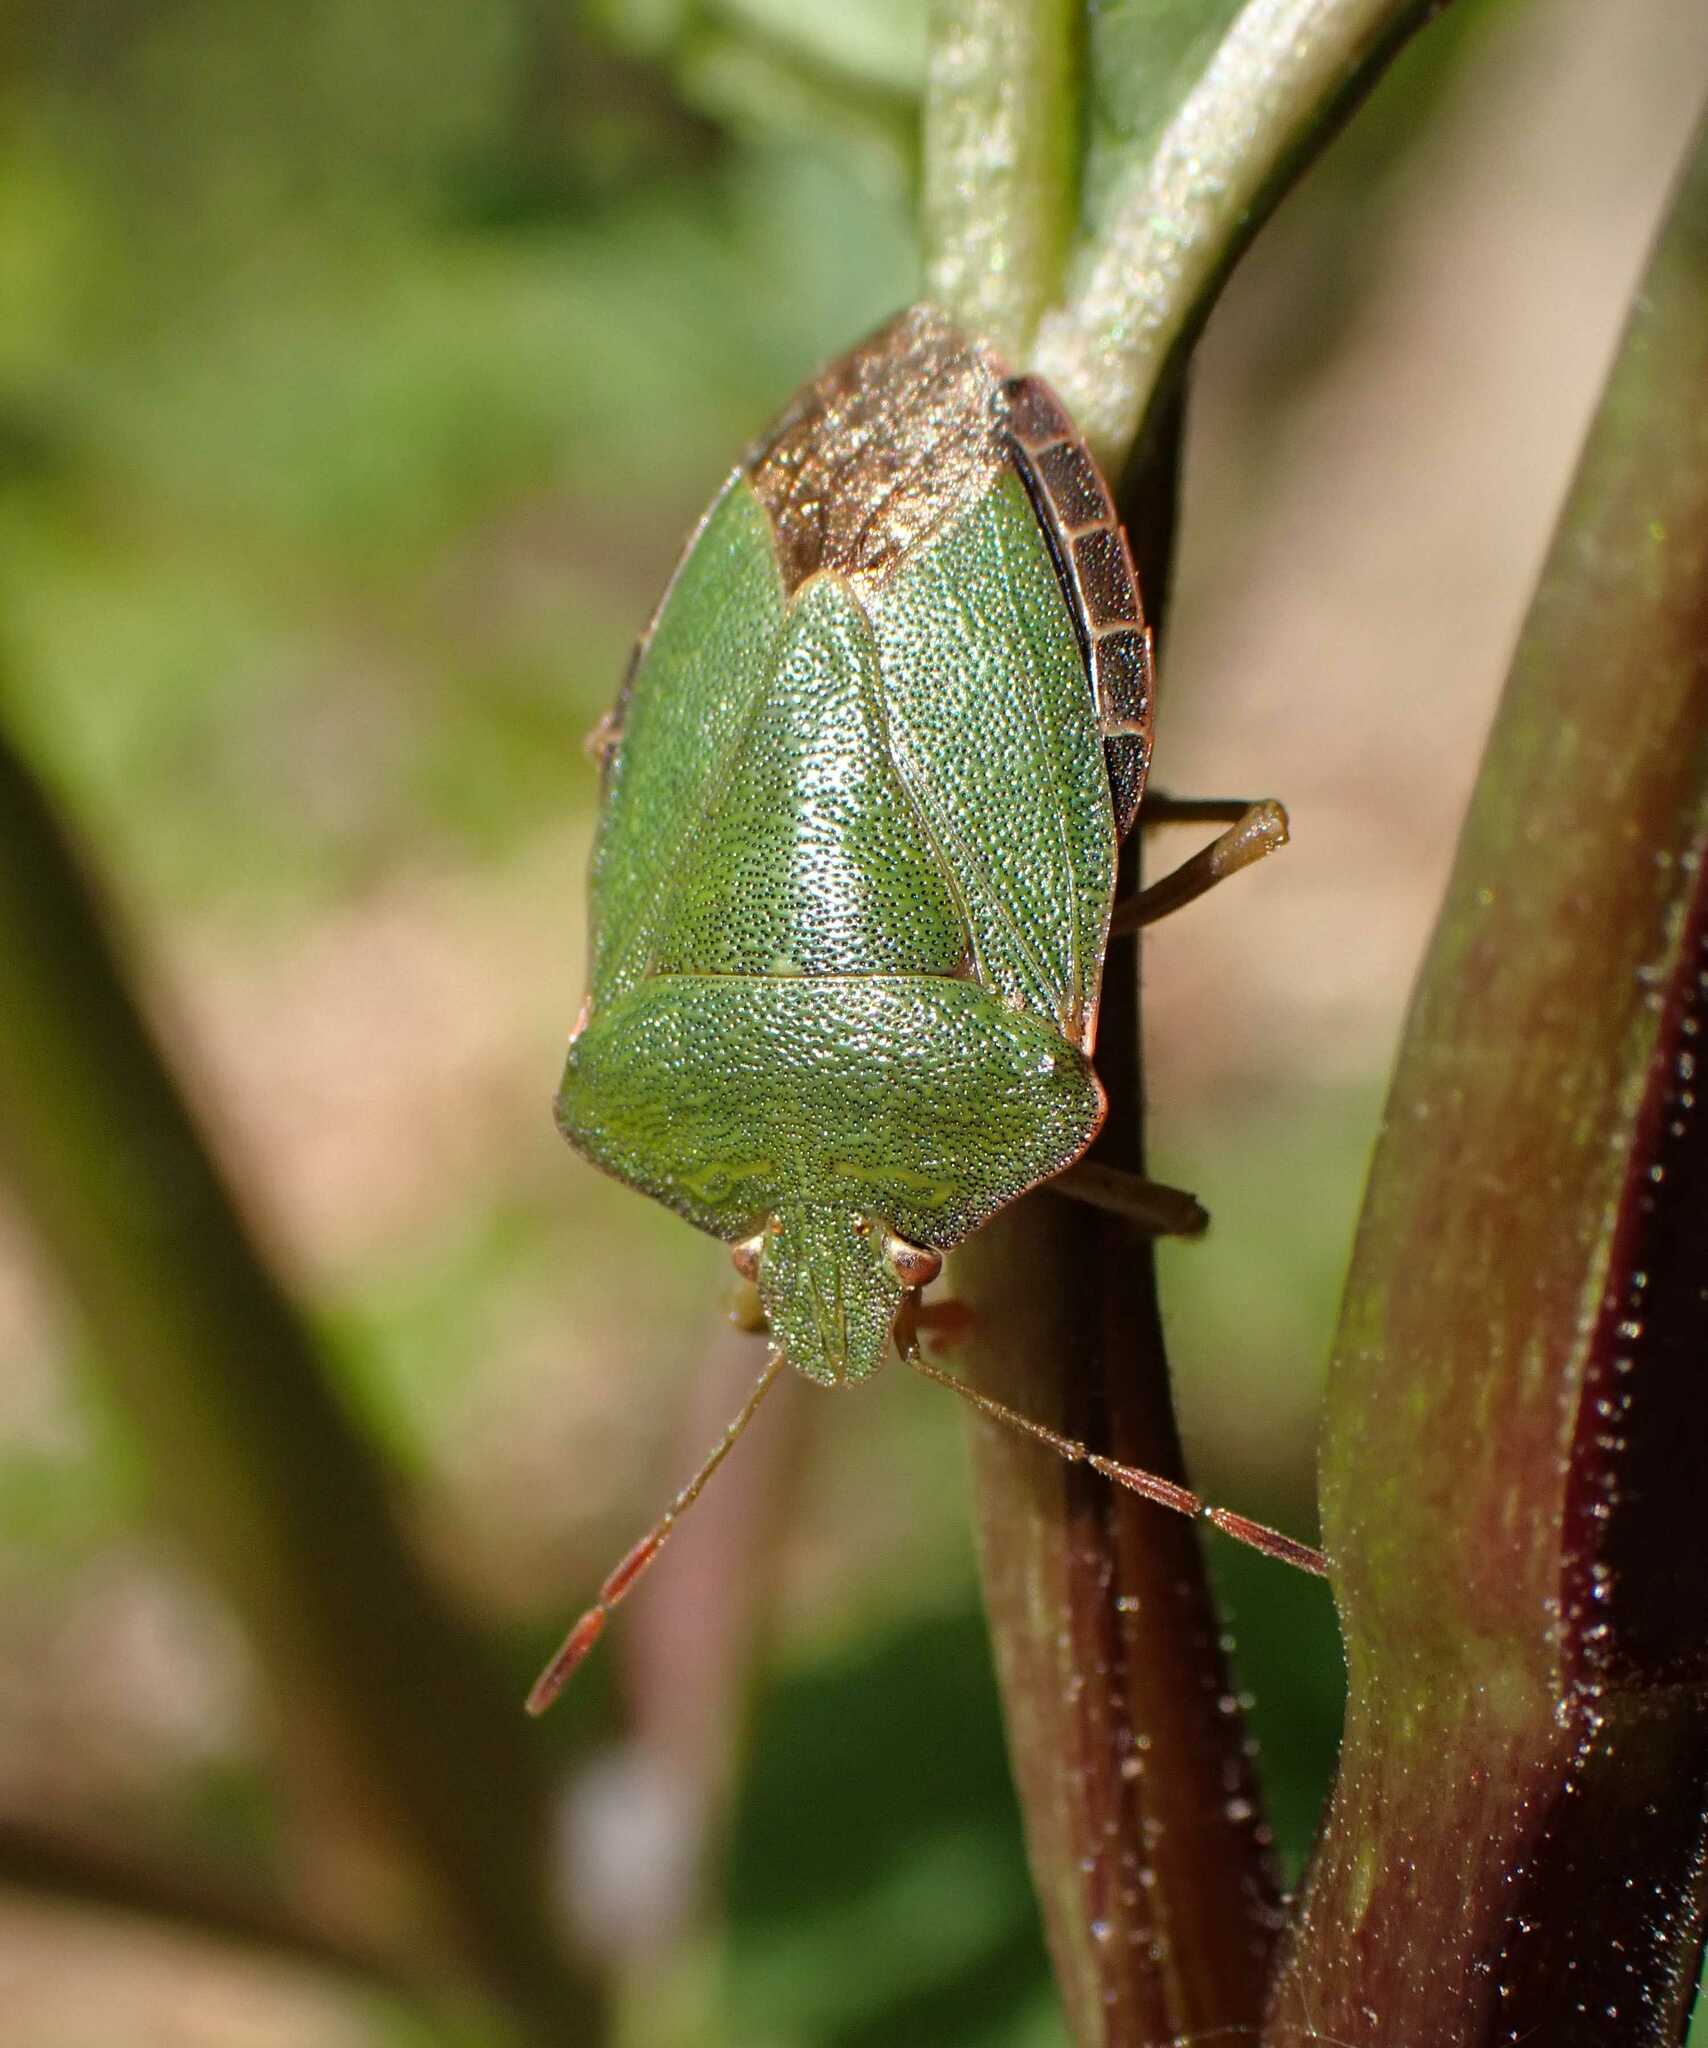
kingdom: Animalia
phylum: Arthropoda
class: Insecta
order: Hemiptera
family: Pentatomidae
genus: Palomena
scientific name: Palomena prasina
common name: Green shieldbug
